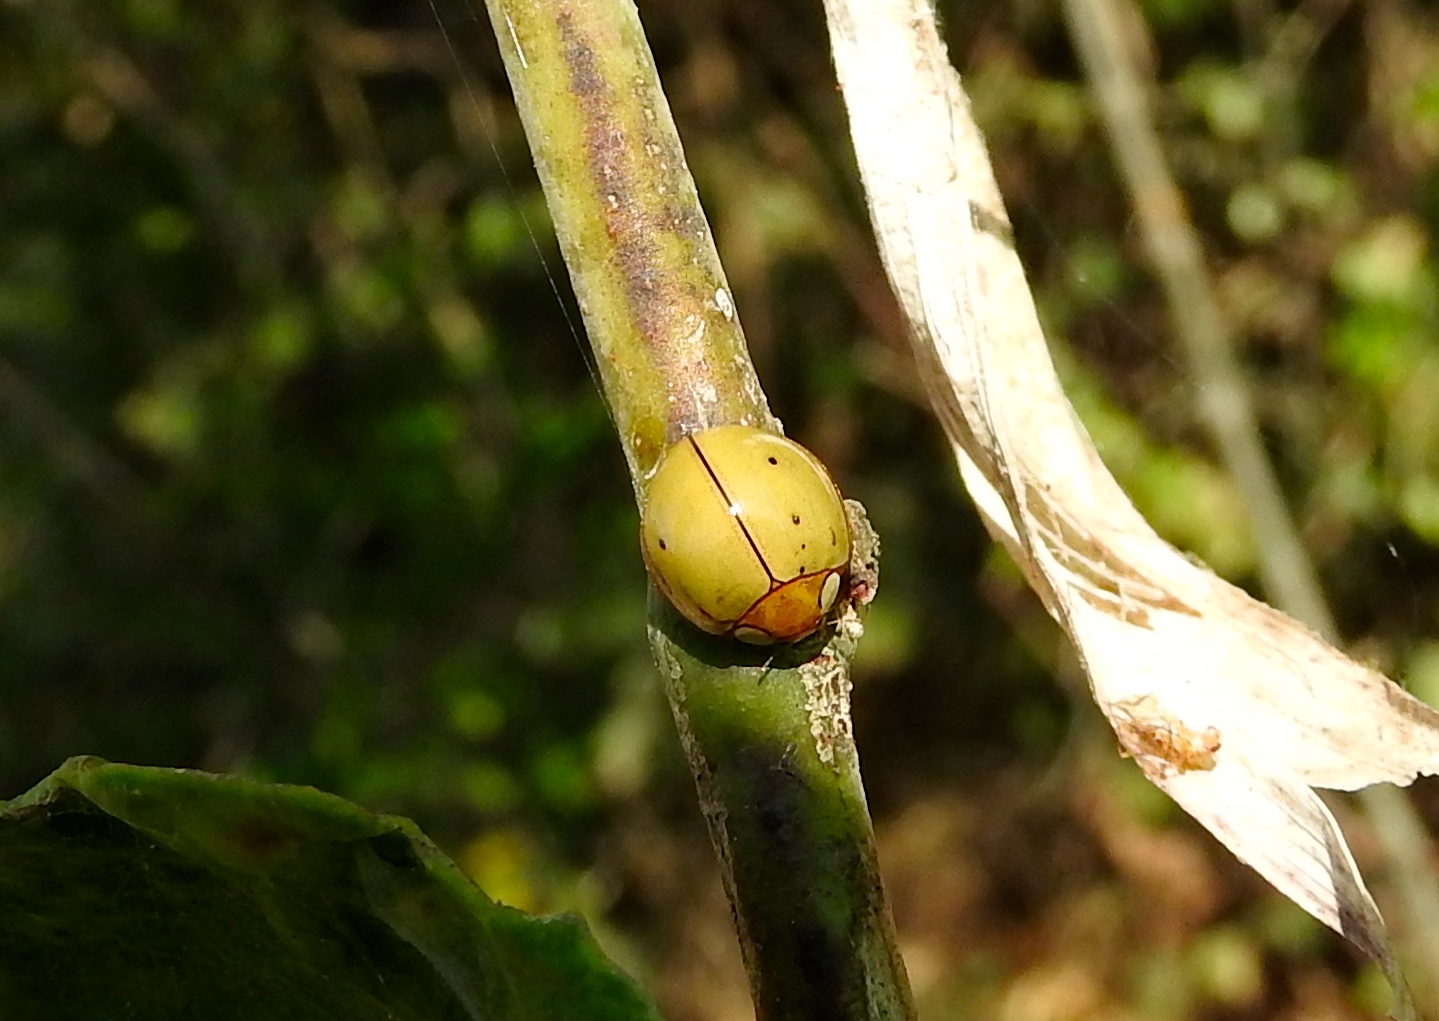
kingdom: Animalia
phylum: Arthropoda
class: Insecta
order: Coleoptera
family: Coccinellidae
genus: Paraneda
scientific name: Paraneda
